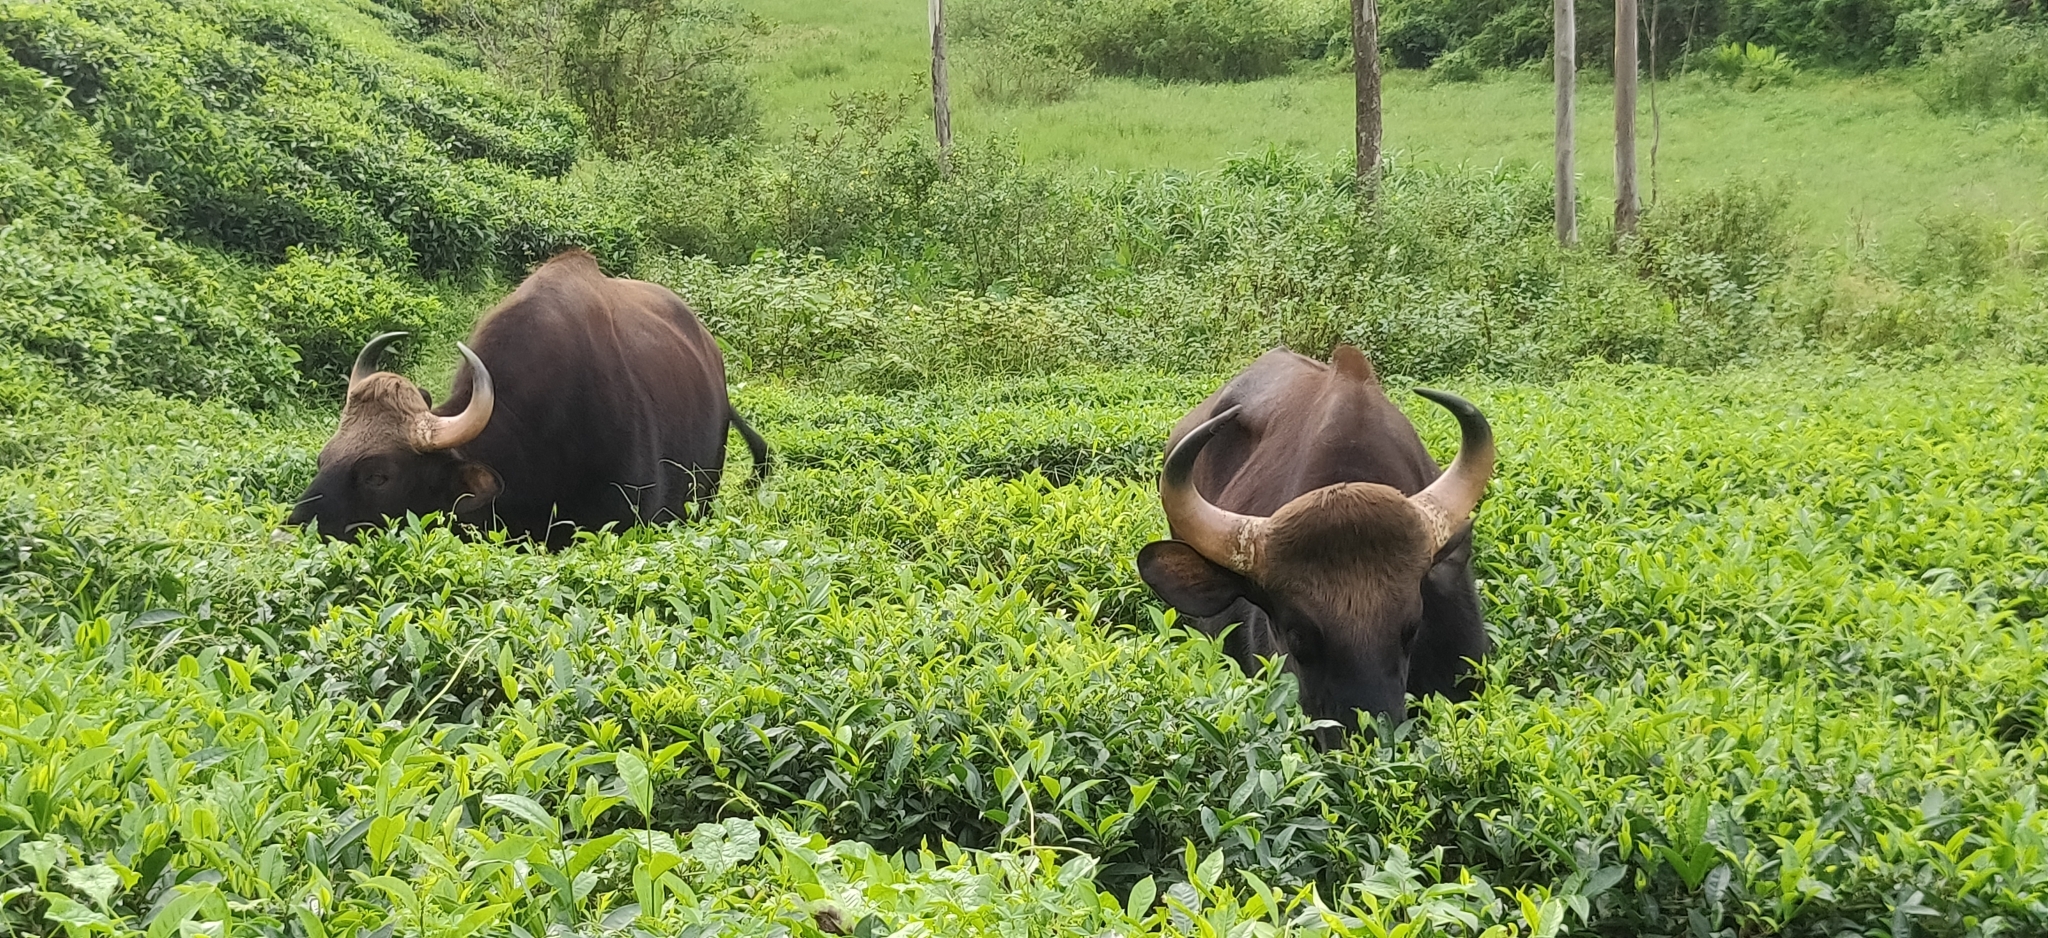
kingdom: Animalia
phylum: Chordata
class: Mammalia
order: Artiodactyla
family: Bovidae
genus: Bos
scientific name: Bos frontalis
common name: Gaur
